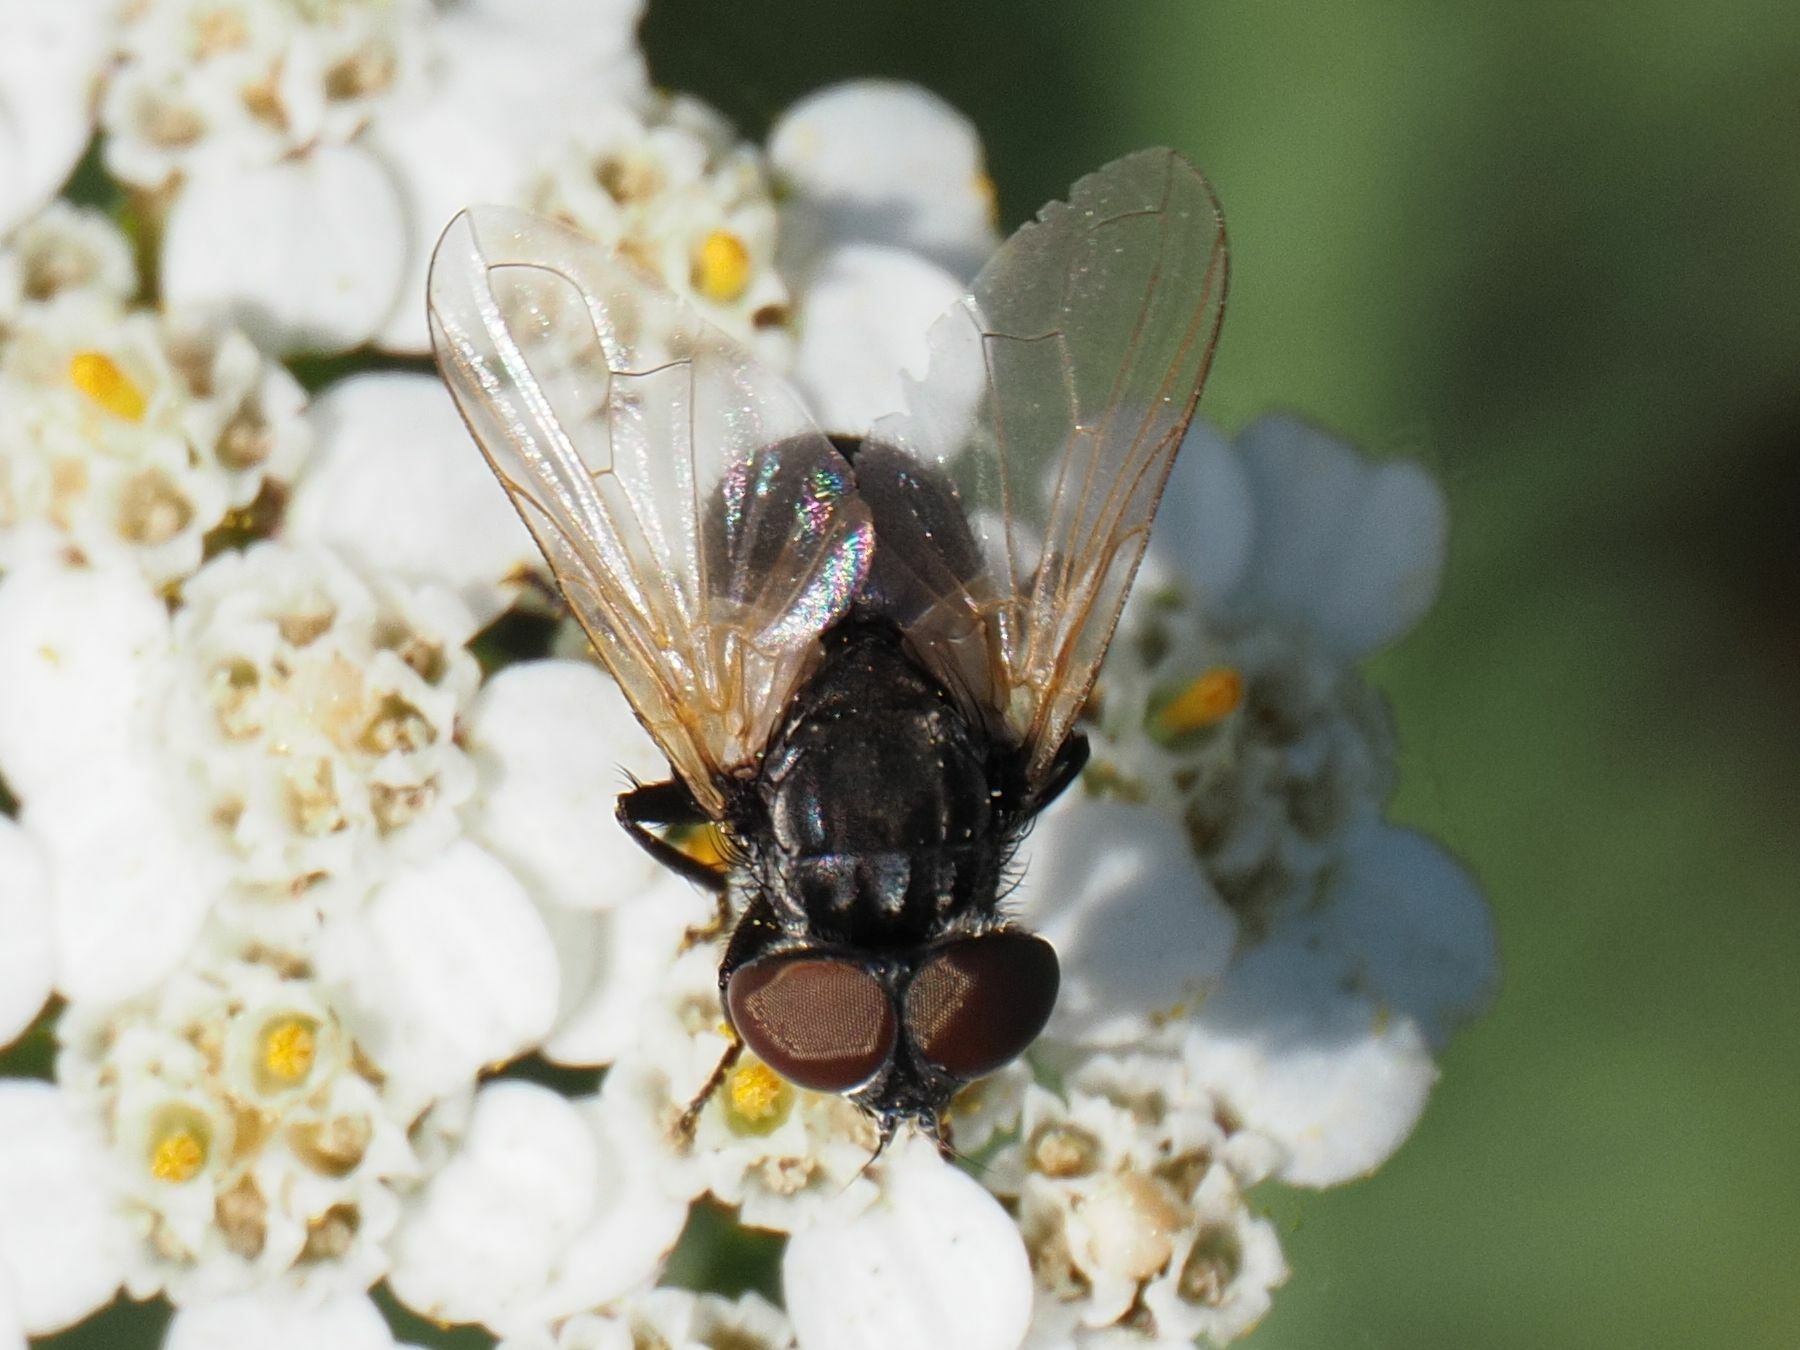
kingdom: Animalia
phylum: Arthropoda
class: Insecta
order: Diptera
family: Tachinidae
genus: Phasia
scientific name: Phasia obesa
